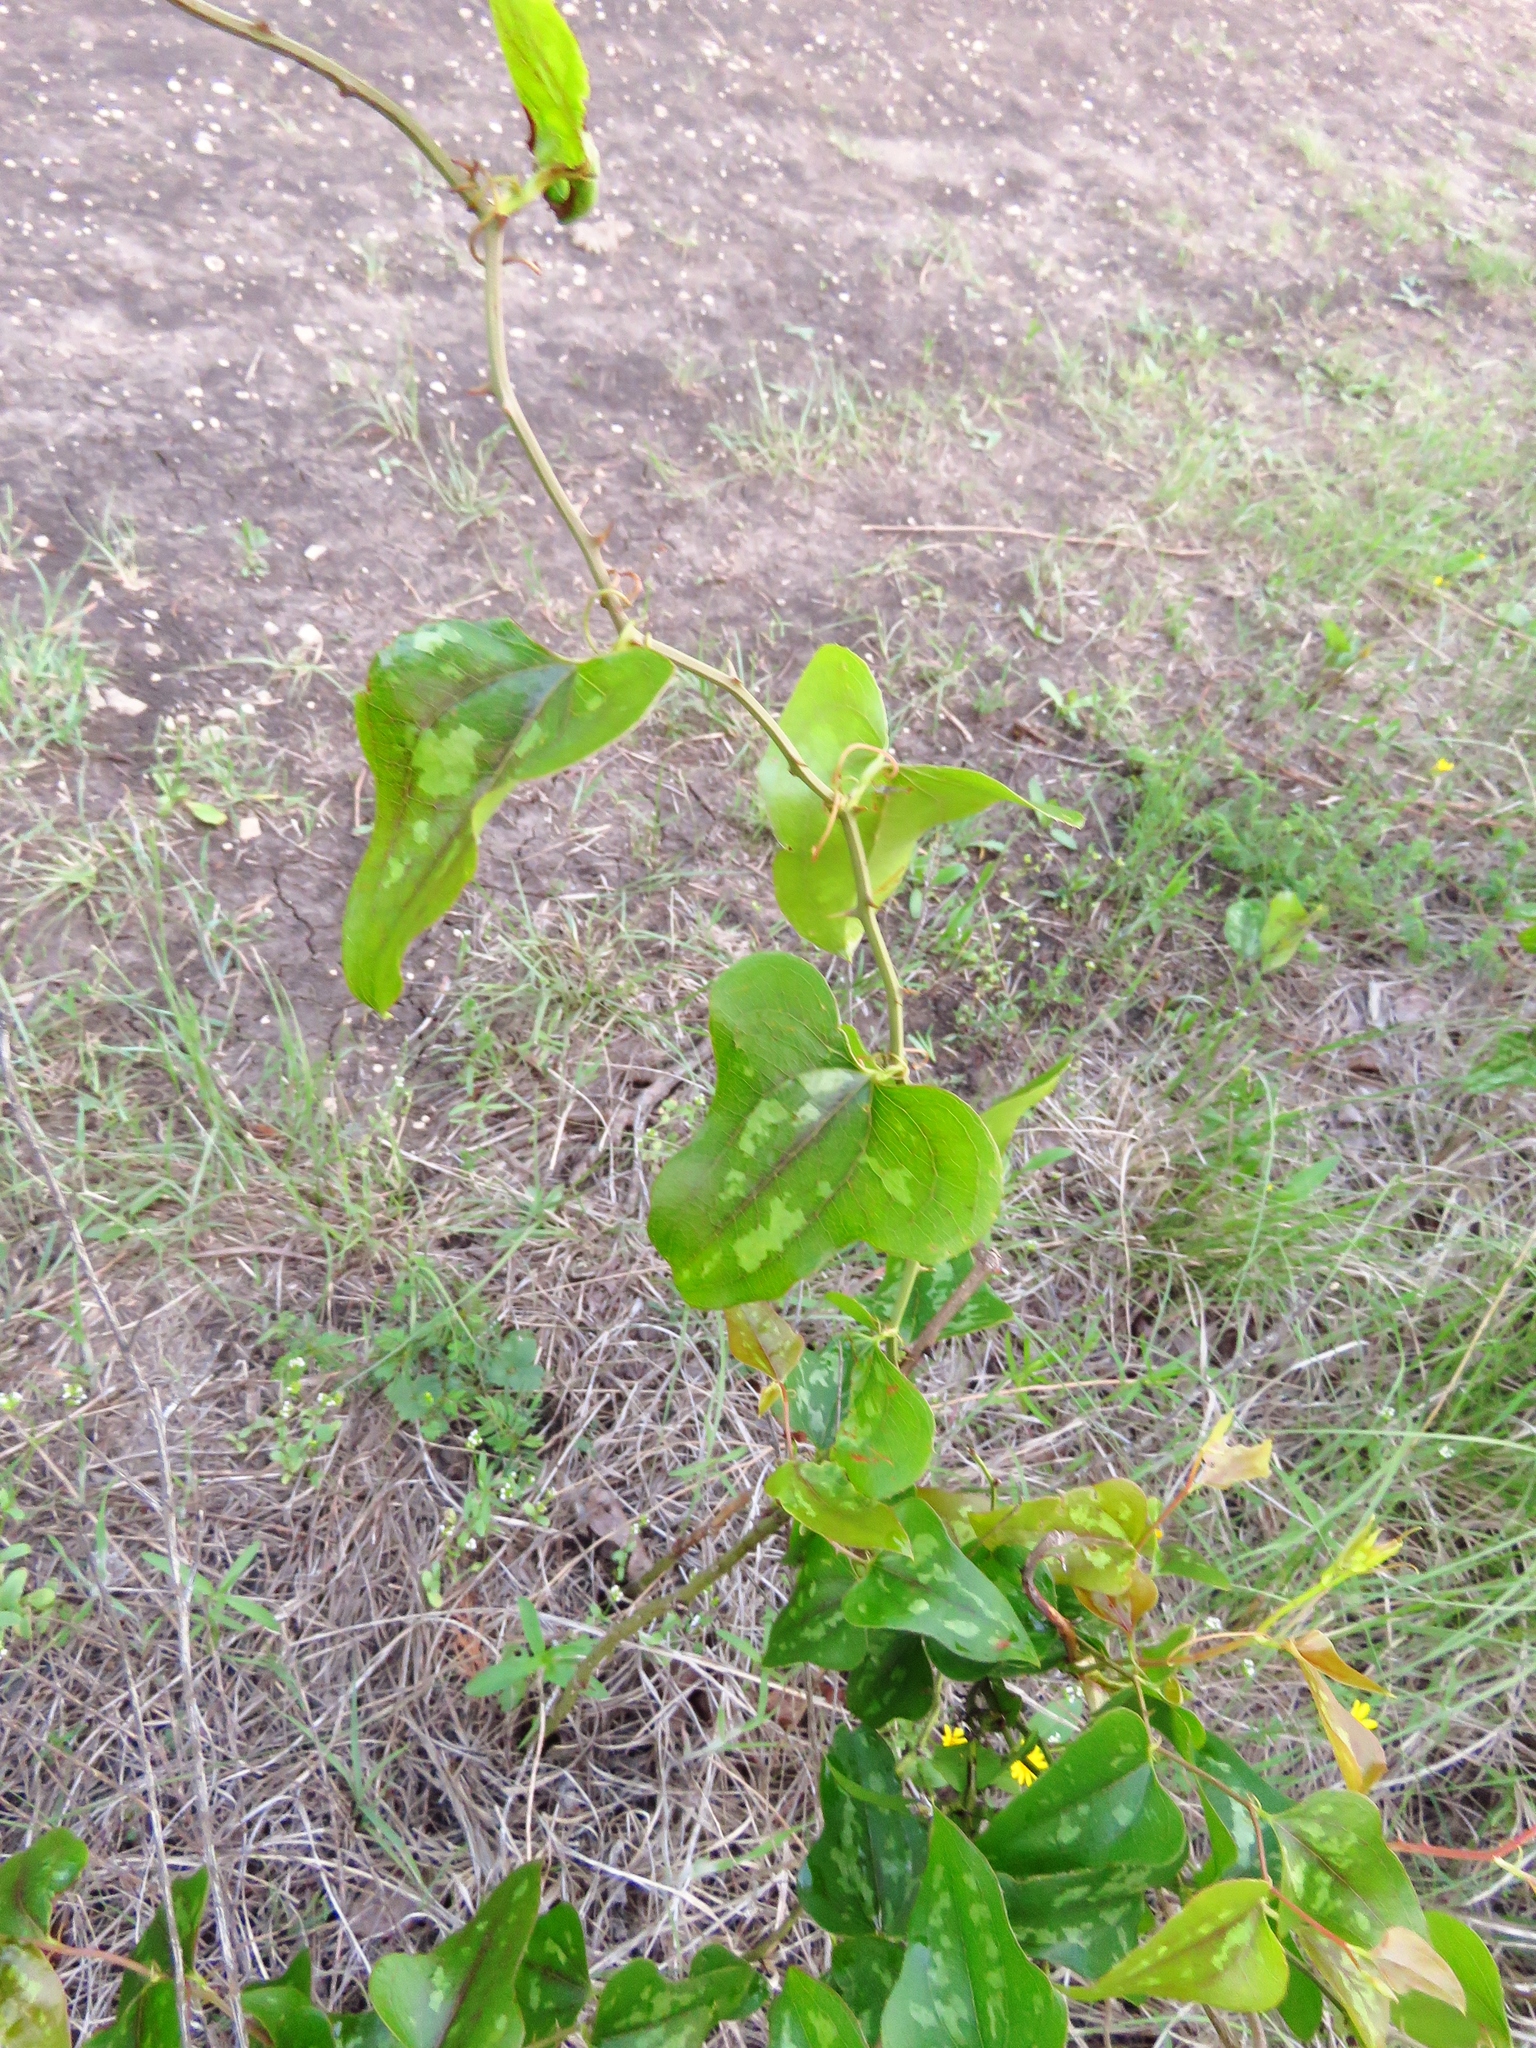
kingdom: Plantae
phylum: Tracheophyta
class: Liliopsida
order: Liliales
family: Smilacaceae
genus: Smilax
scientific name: Smilax bona-nox
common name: Catbrier
